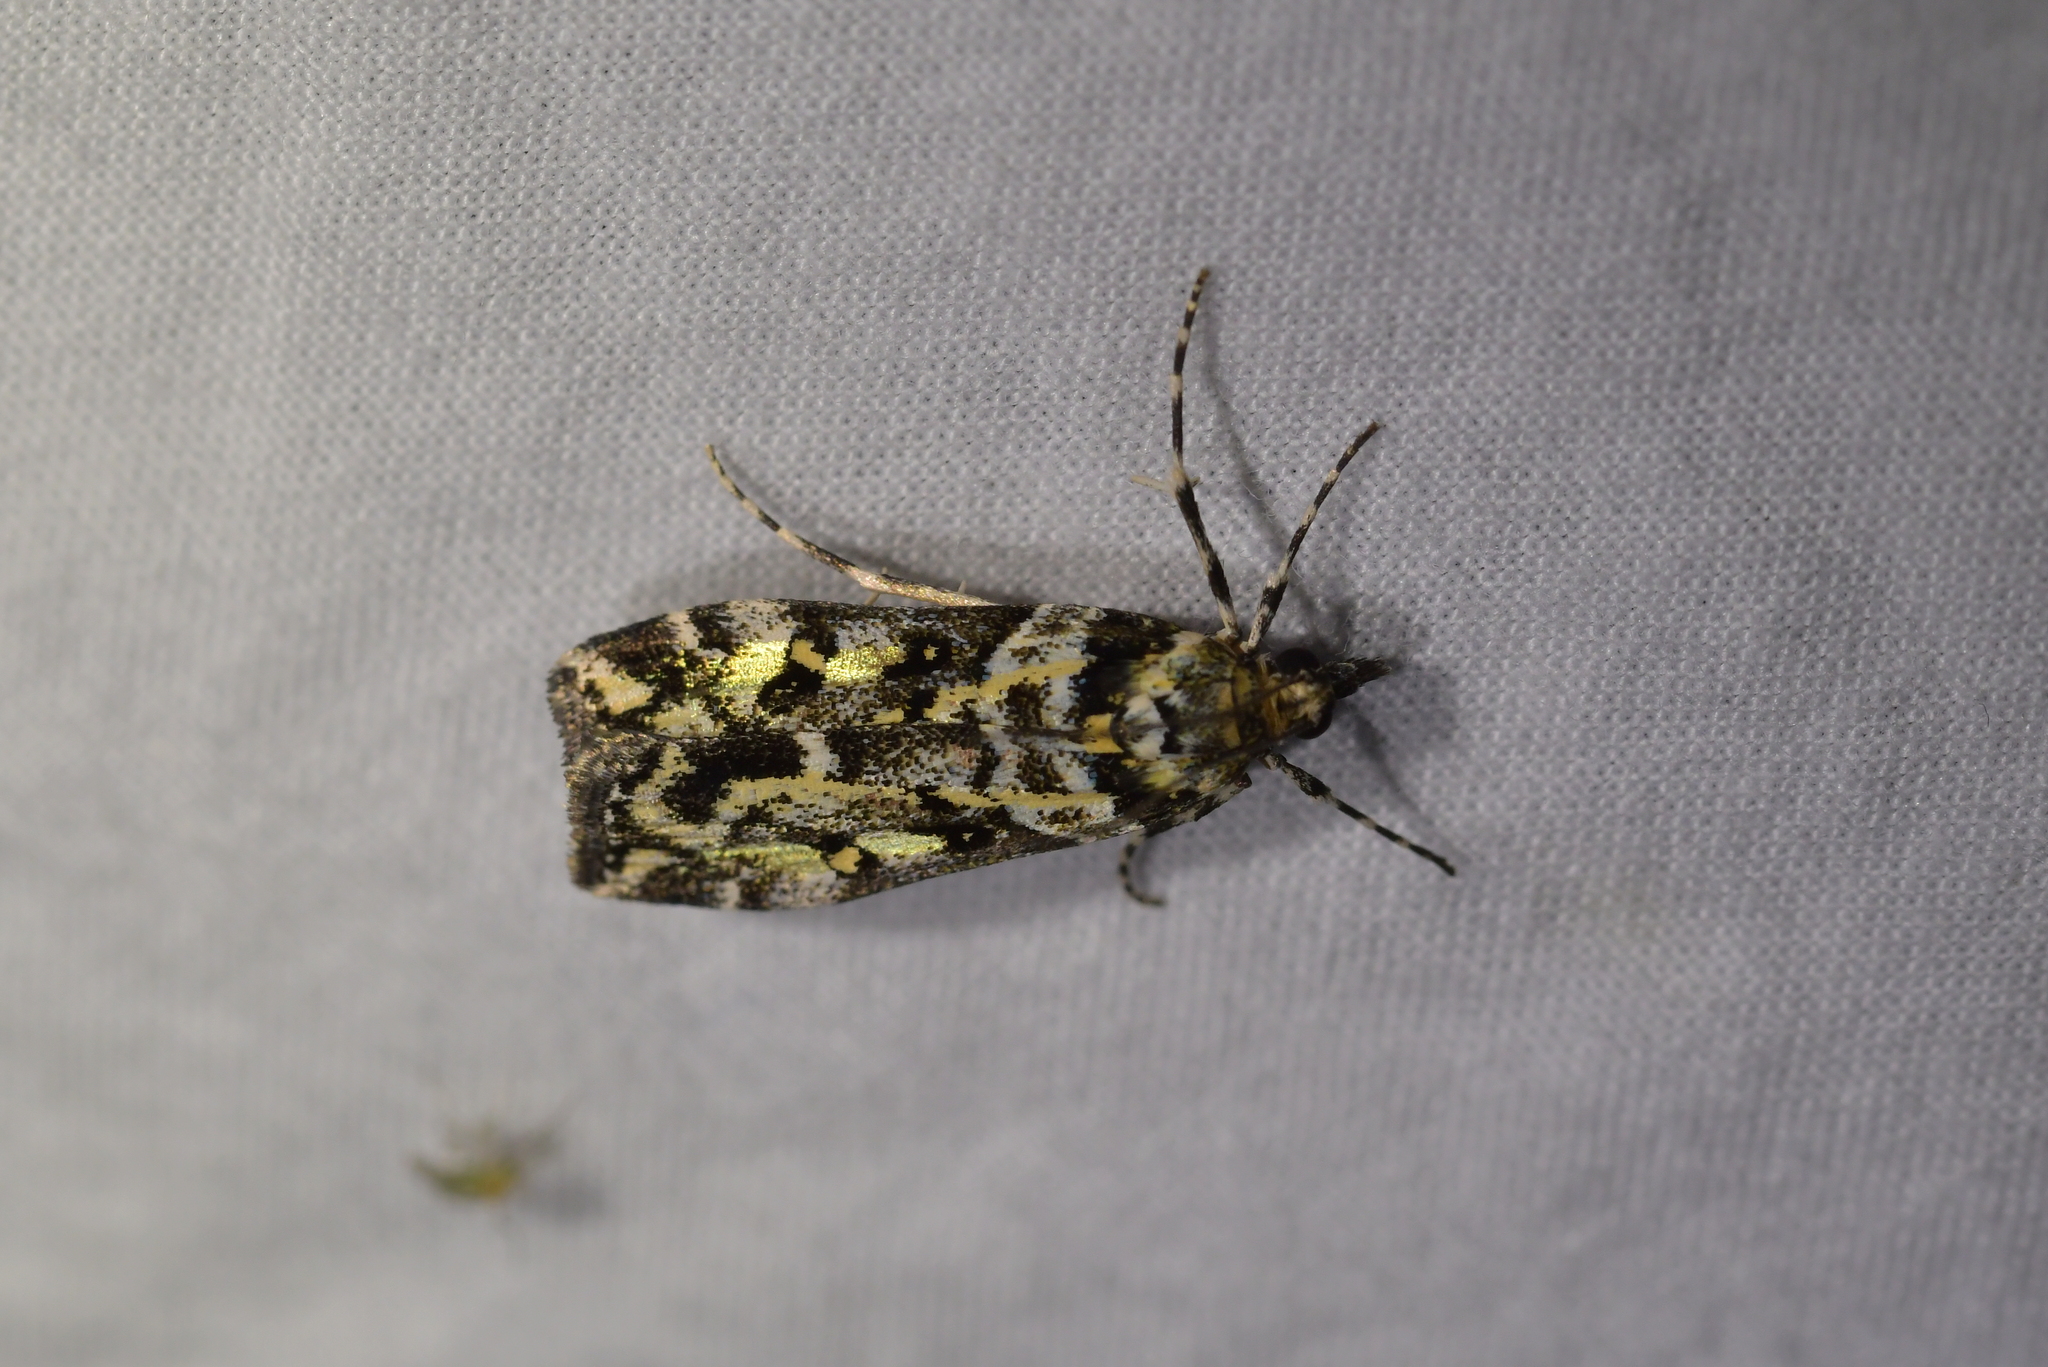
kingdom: Animalia
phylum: Arthropoda
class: Insecta
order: Lepidoptera
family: Crambidae
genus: Eudonia
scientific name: Eudonia diphtheralis
